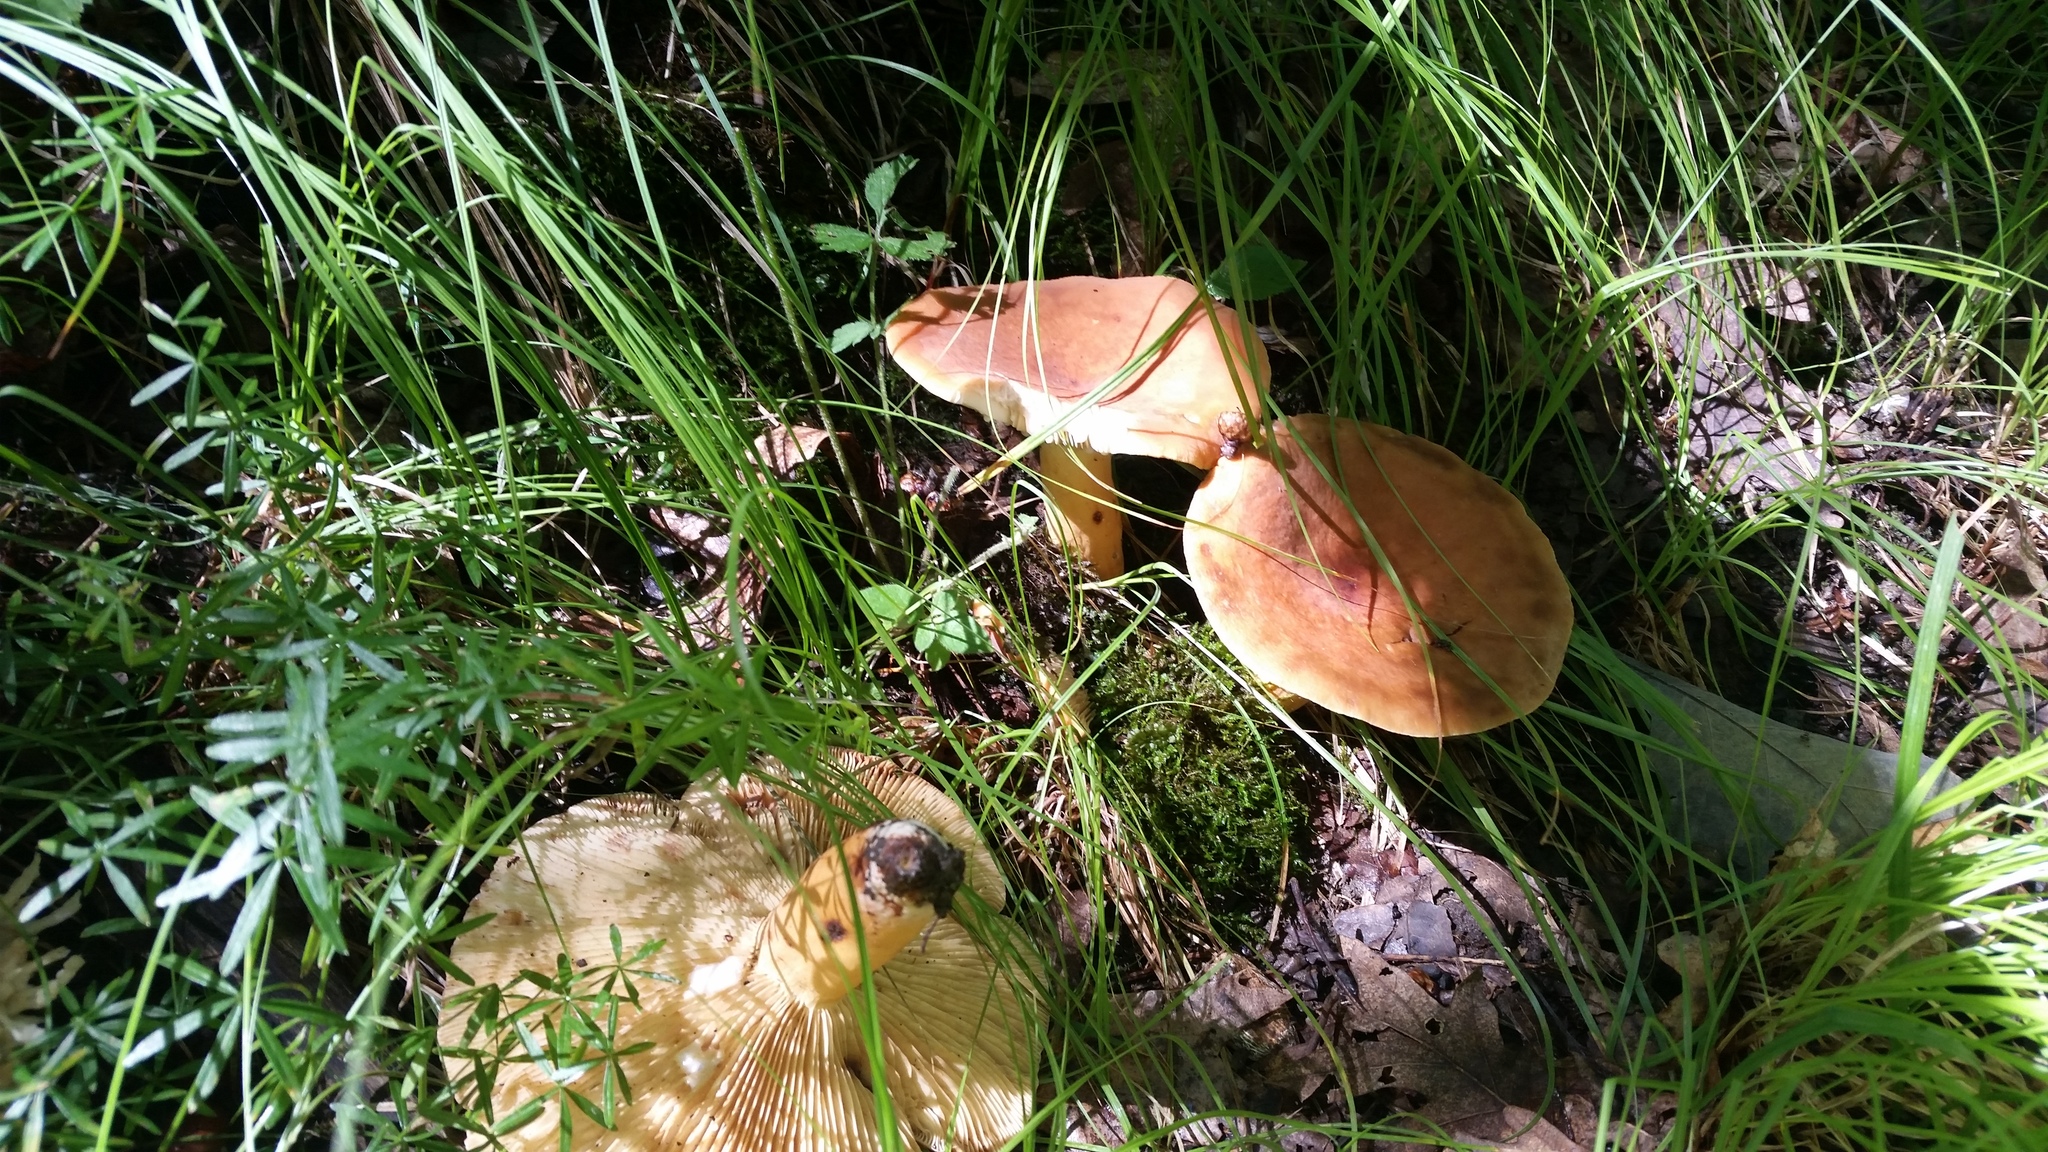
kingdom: Fungi
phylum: Basidiomycota
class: Agaricomycetes
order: Russulales
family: Russulaceae
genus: Lactifluus
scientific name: Lactifluus volemus
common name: Fishy milkcap
